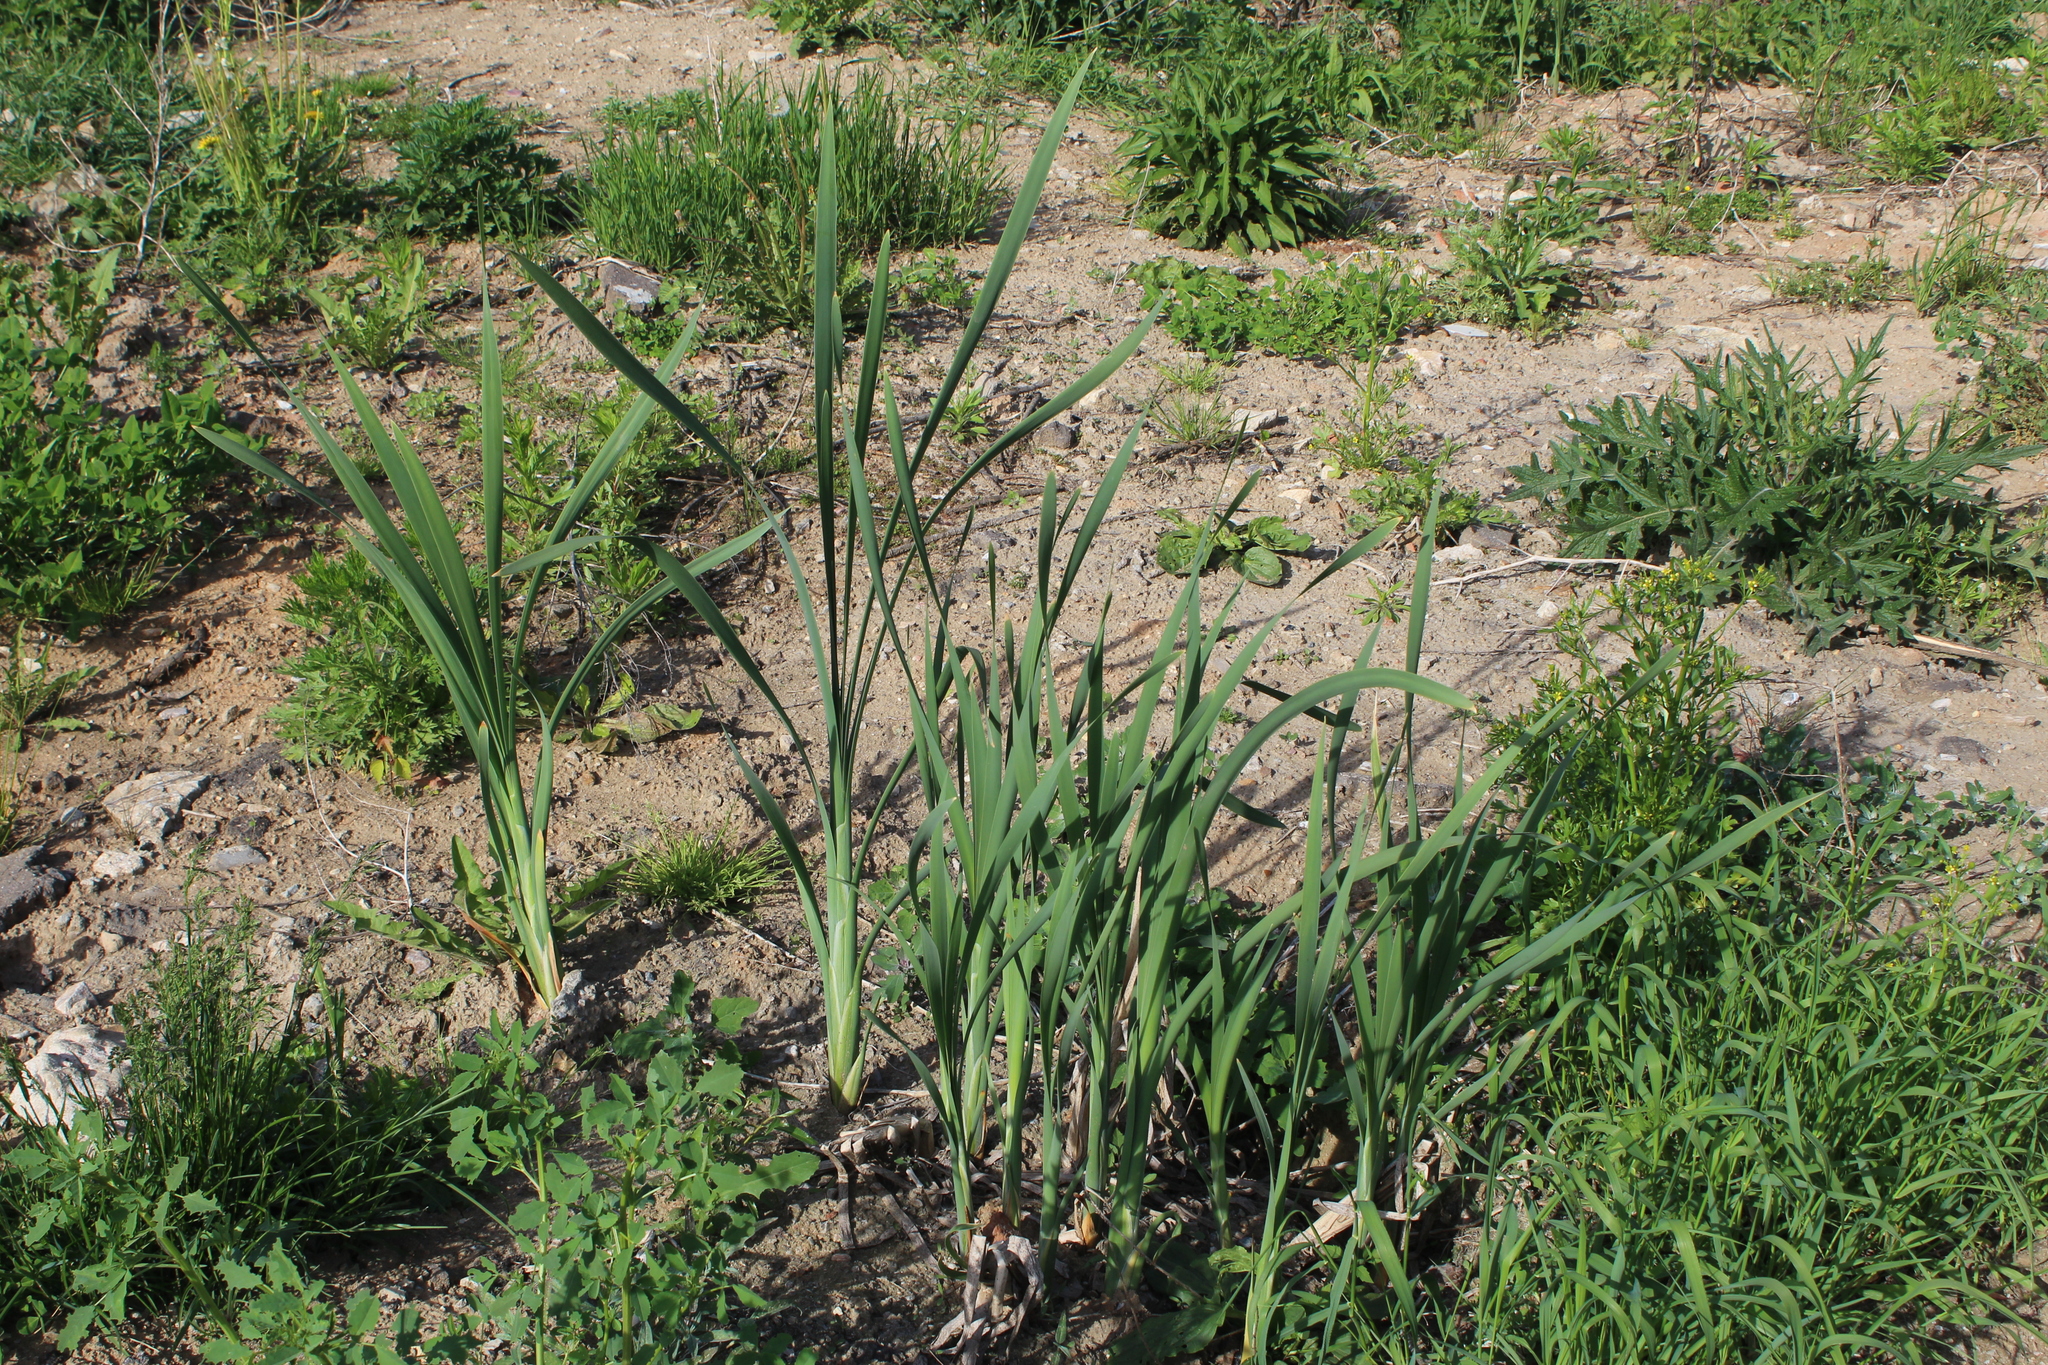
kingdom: Plantae
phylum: Tracheophyta
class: Liliopsida
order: Poales
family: Typhaceae
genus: Typha
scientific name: Typha latifolia
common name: Broadleaf cattail
